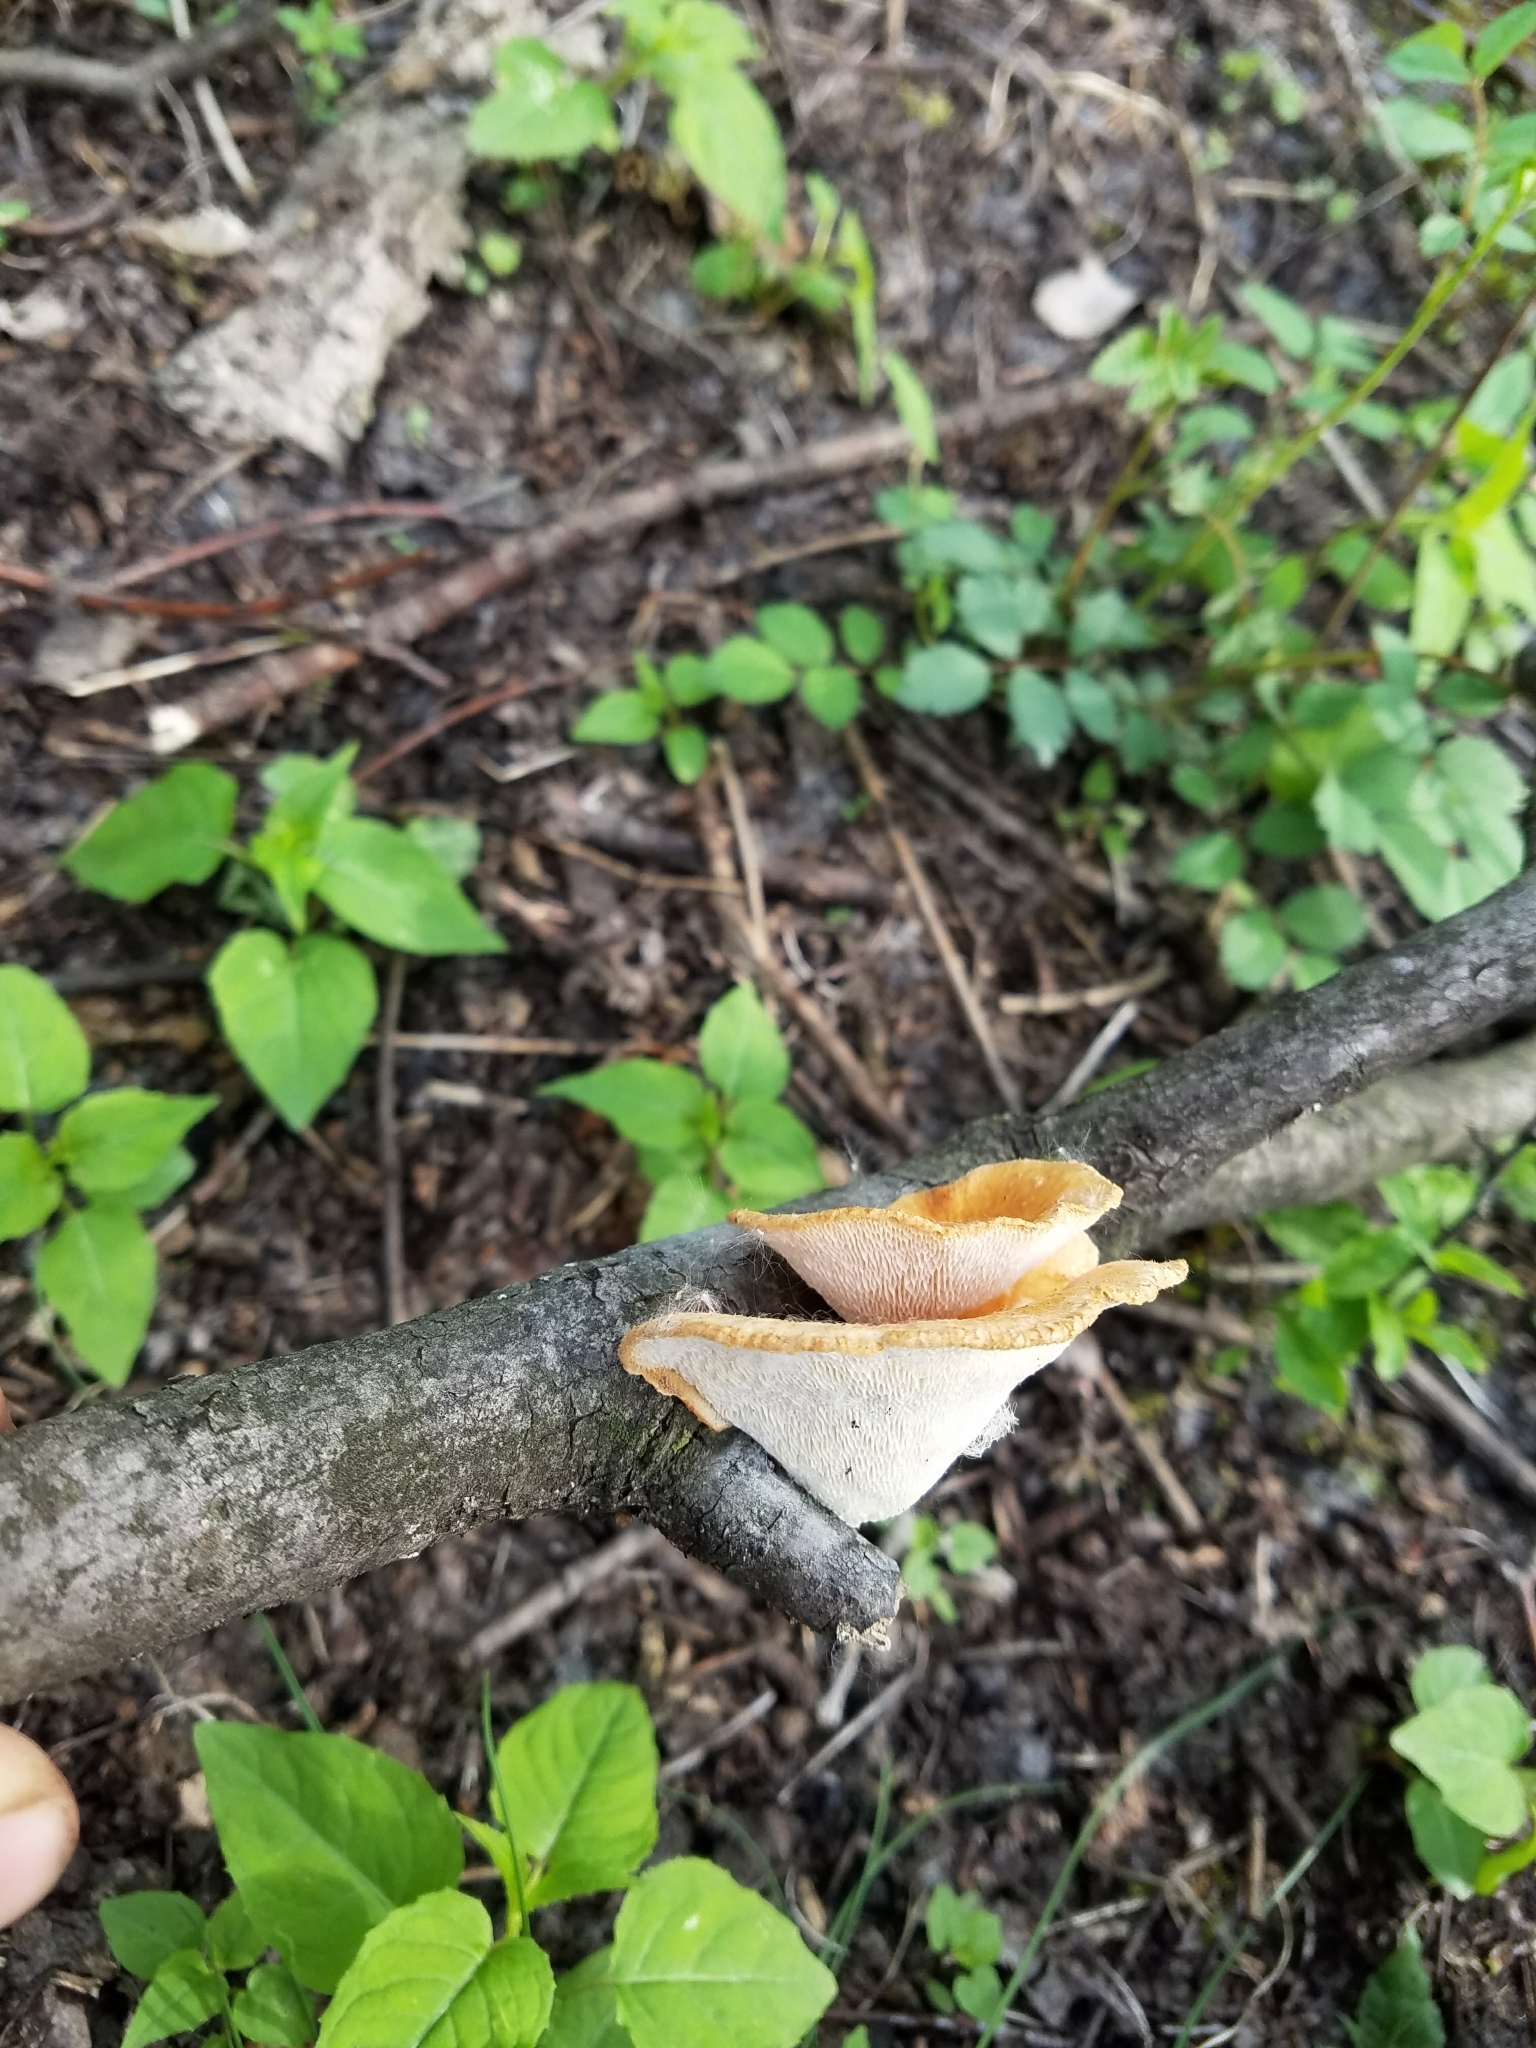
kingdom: Fungi
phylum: Basidiomycota
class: Agaricomycetes
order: Polyporales
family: Polyporaceae
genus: Neofavolus
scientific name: Neofavolus alveolaris
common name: Hexagonal-pored polypore
